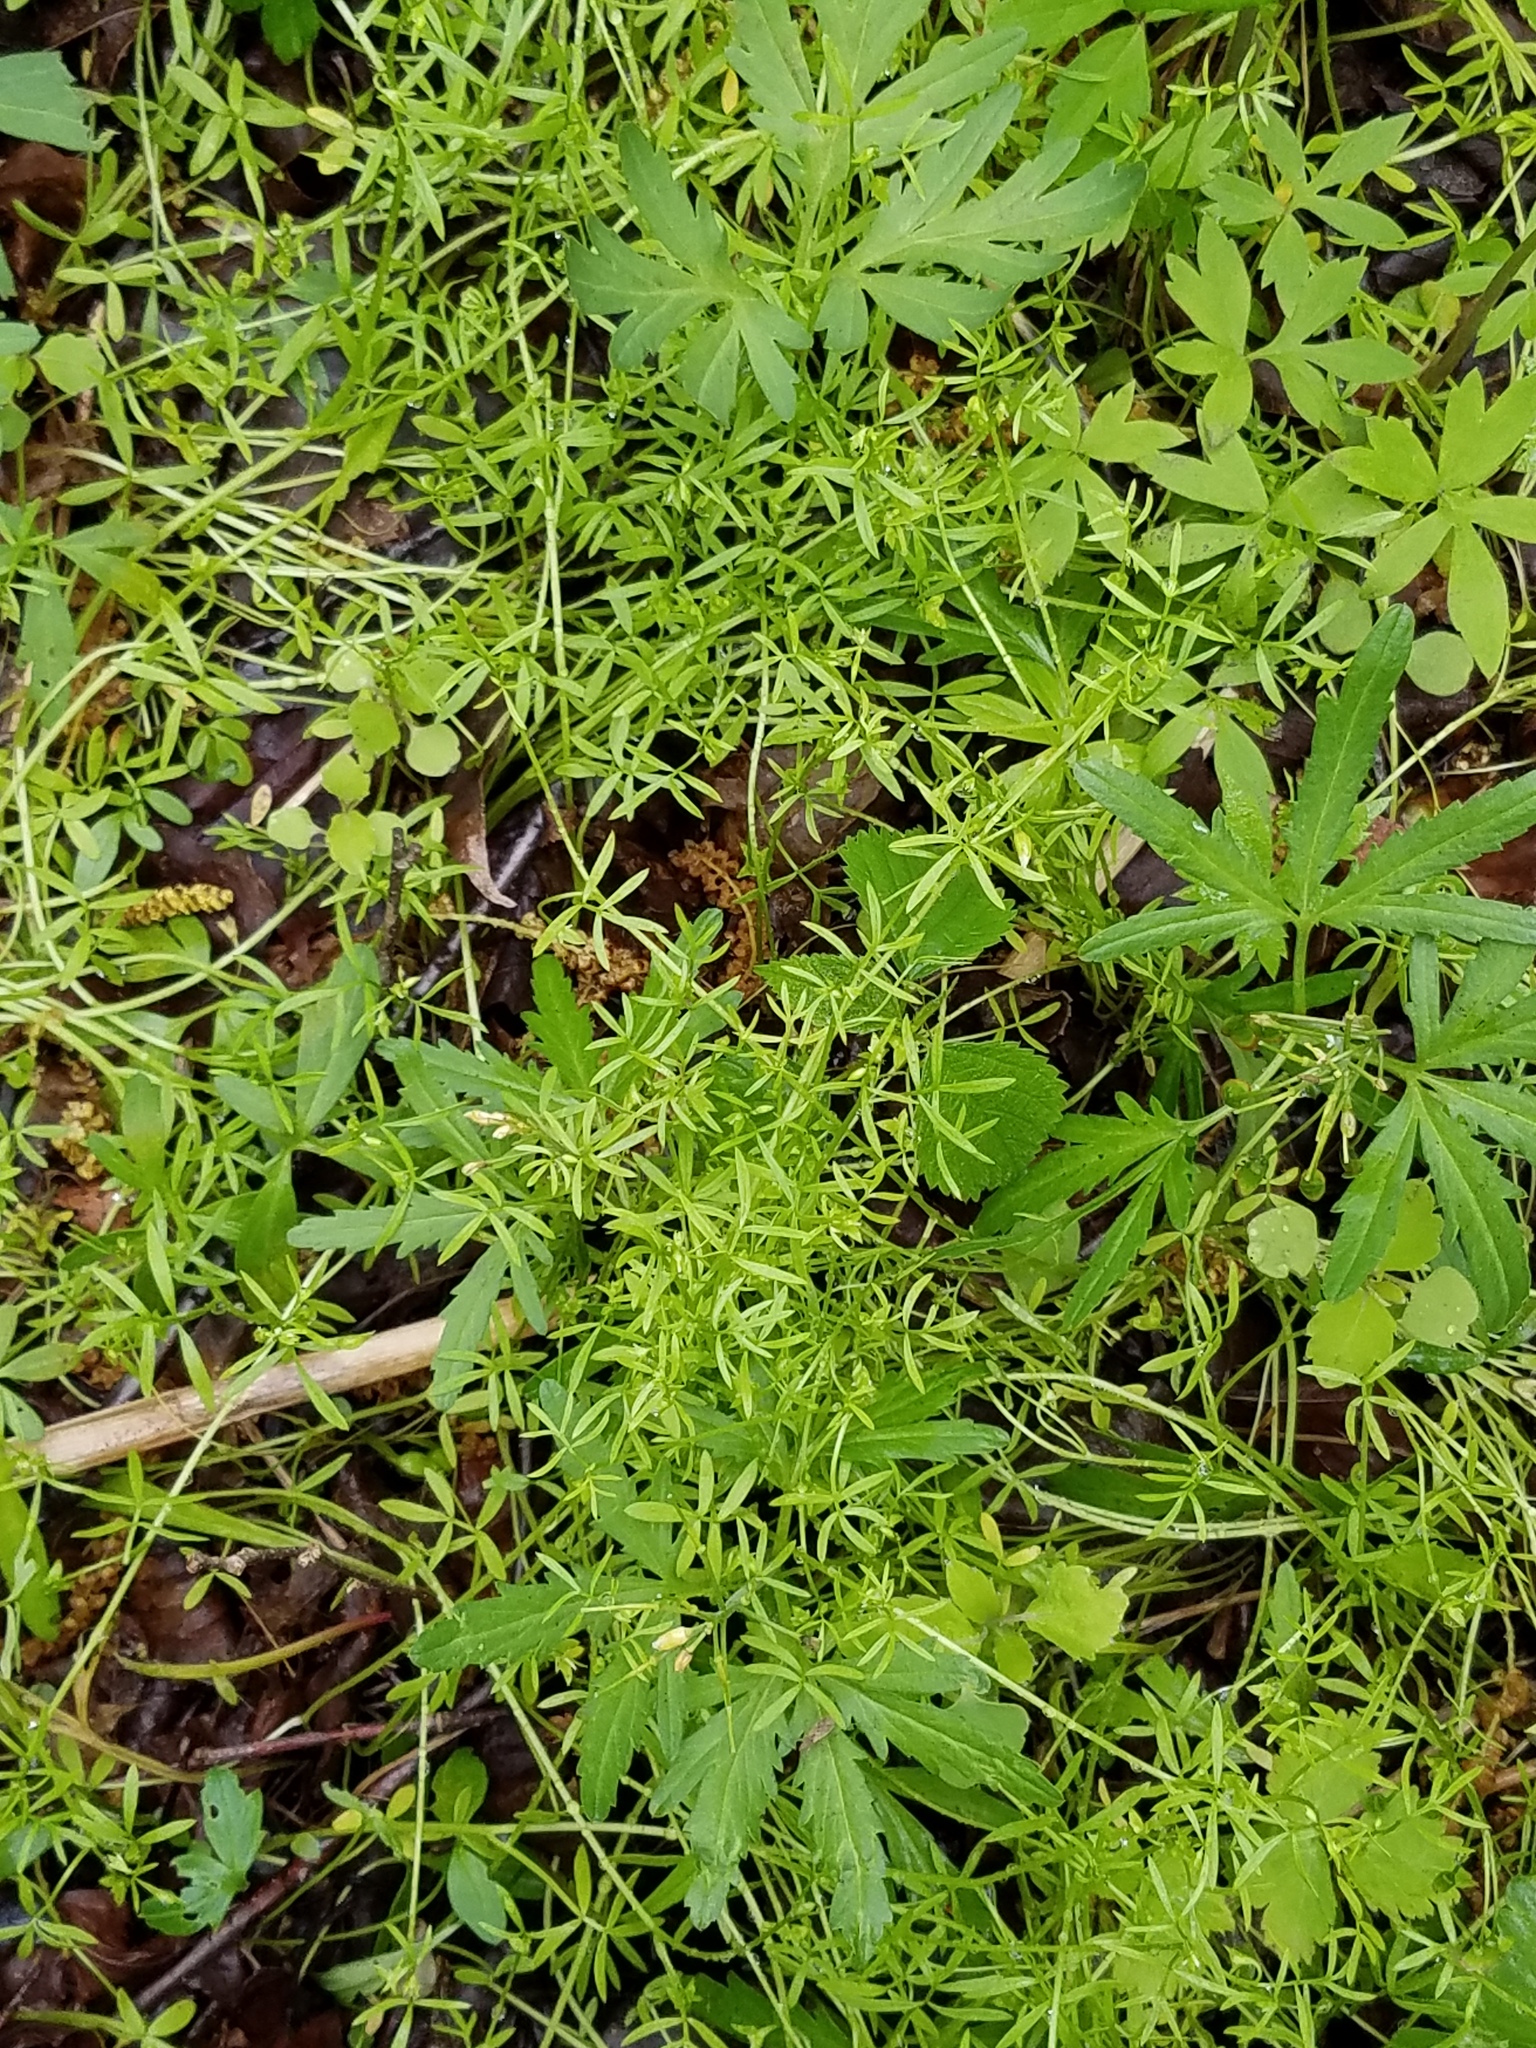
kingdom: Plantae
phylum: Tracheophyta
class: Magnoliopsida
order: Brassicales
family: Limnanthaceae
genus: Floerkea
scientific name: Floerkea proserpinacoides
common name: False mermaid
